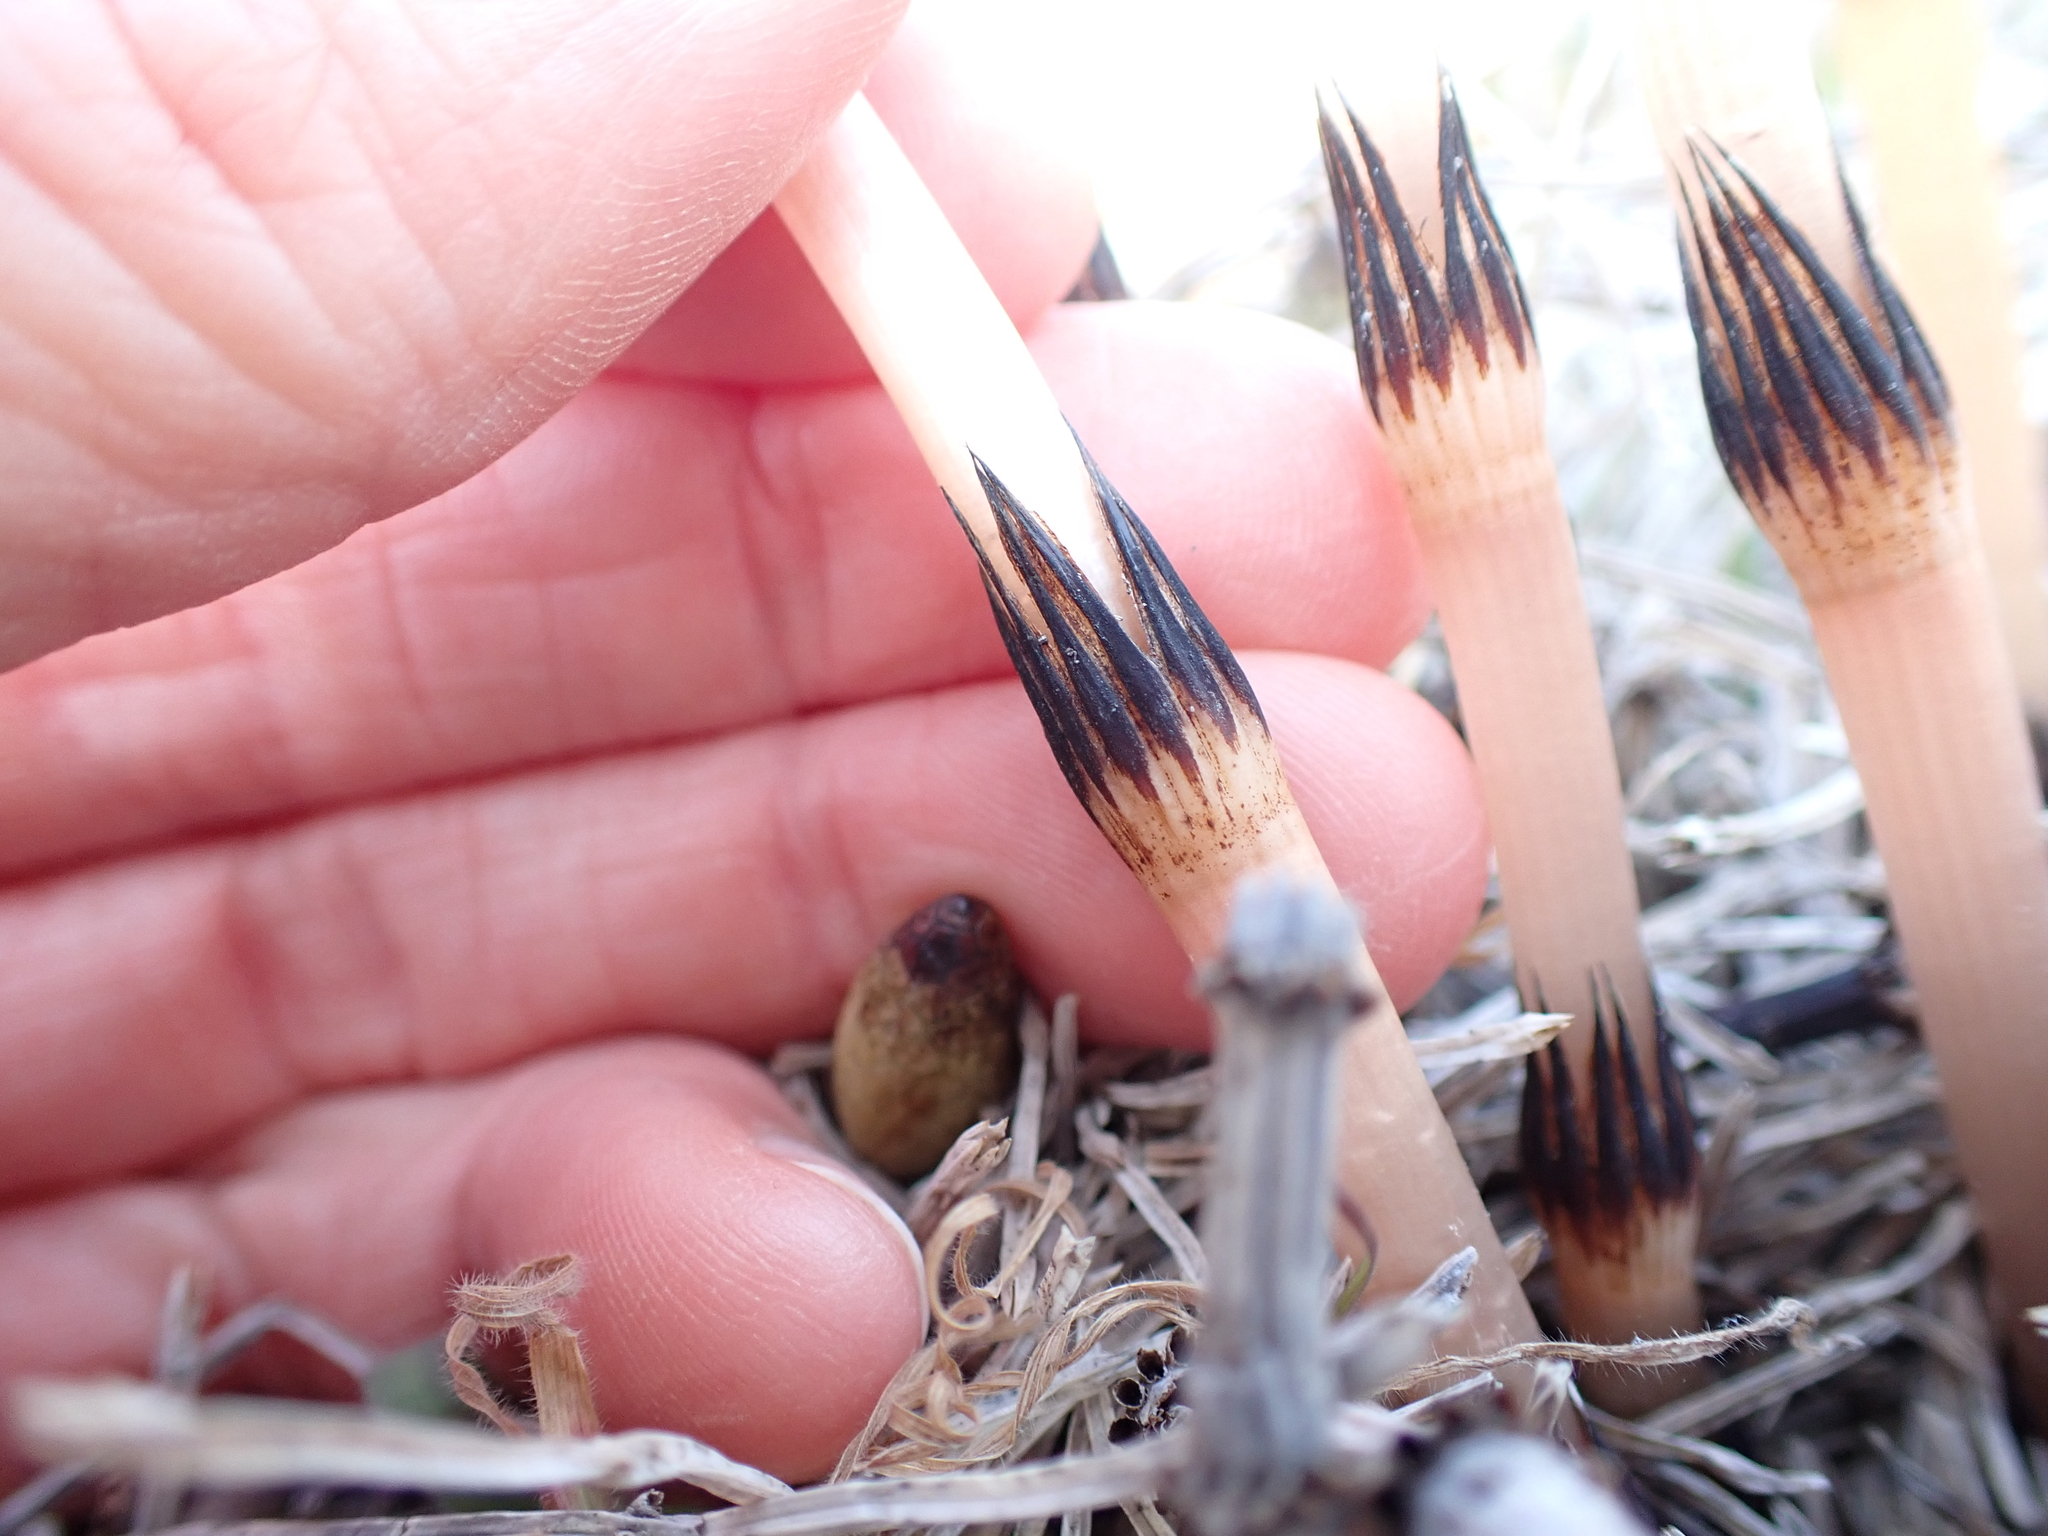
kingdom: Plantae
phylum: Tracheophyta
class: Polypodiopsida
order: Equisetales
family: Equisetaceae
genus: Equisetum
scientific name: Equisetum arvense
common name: Field horsetail
